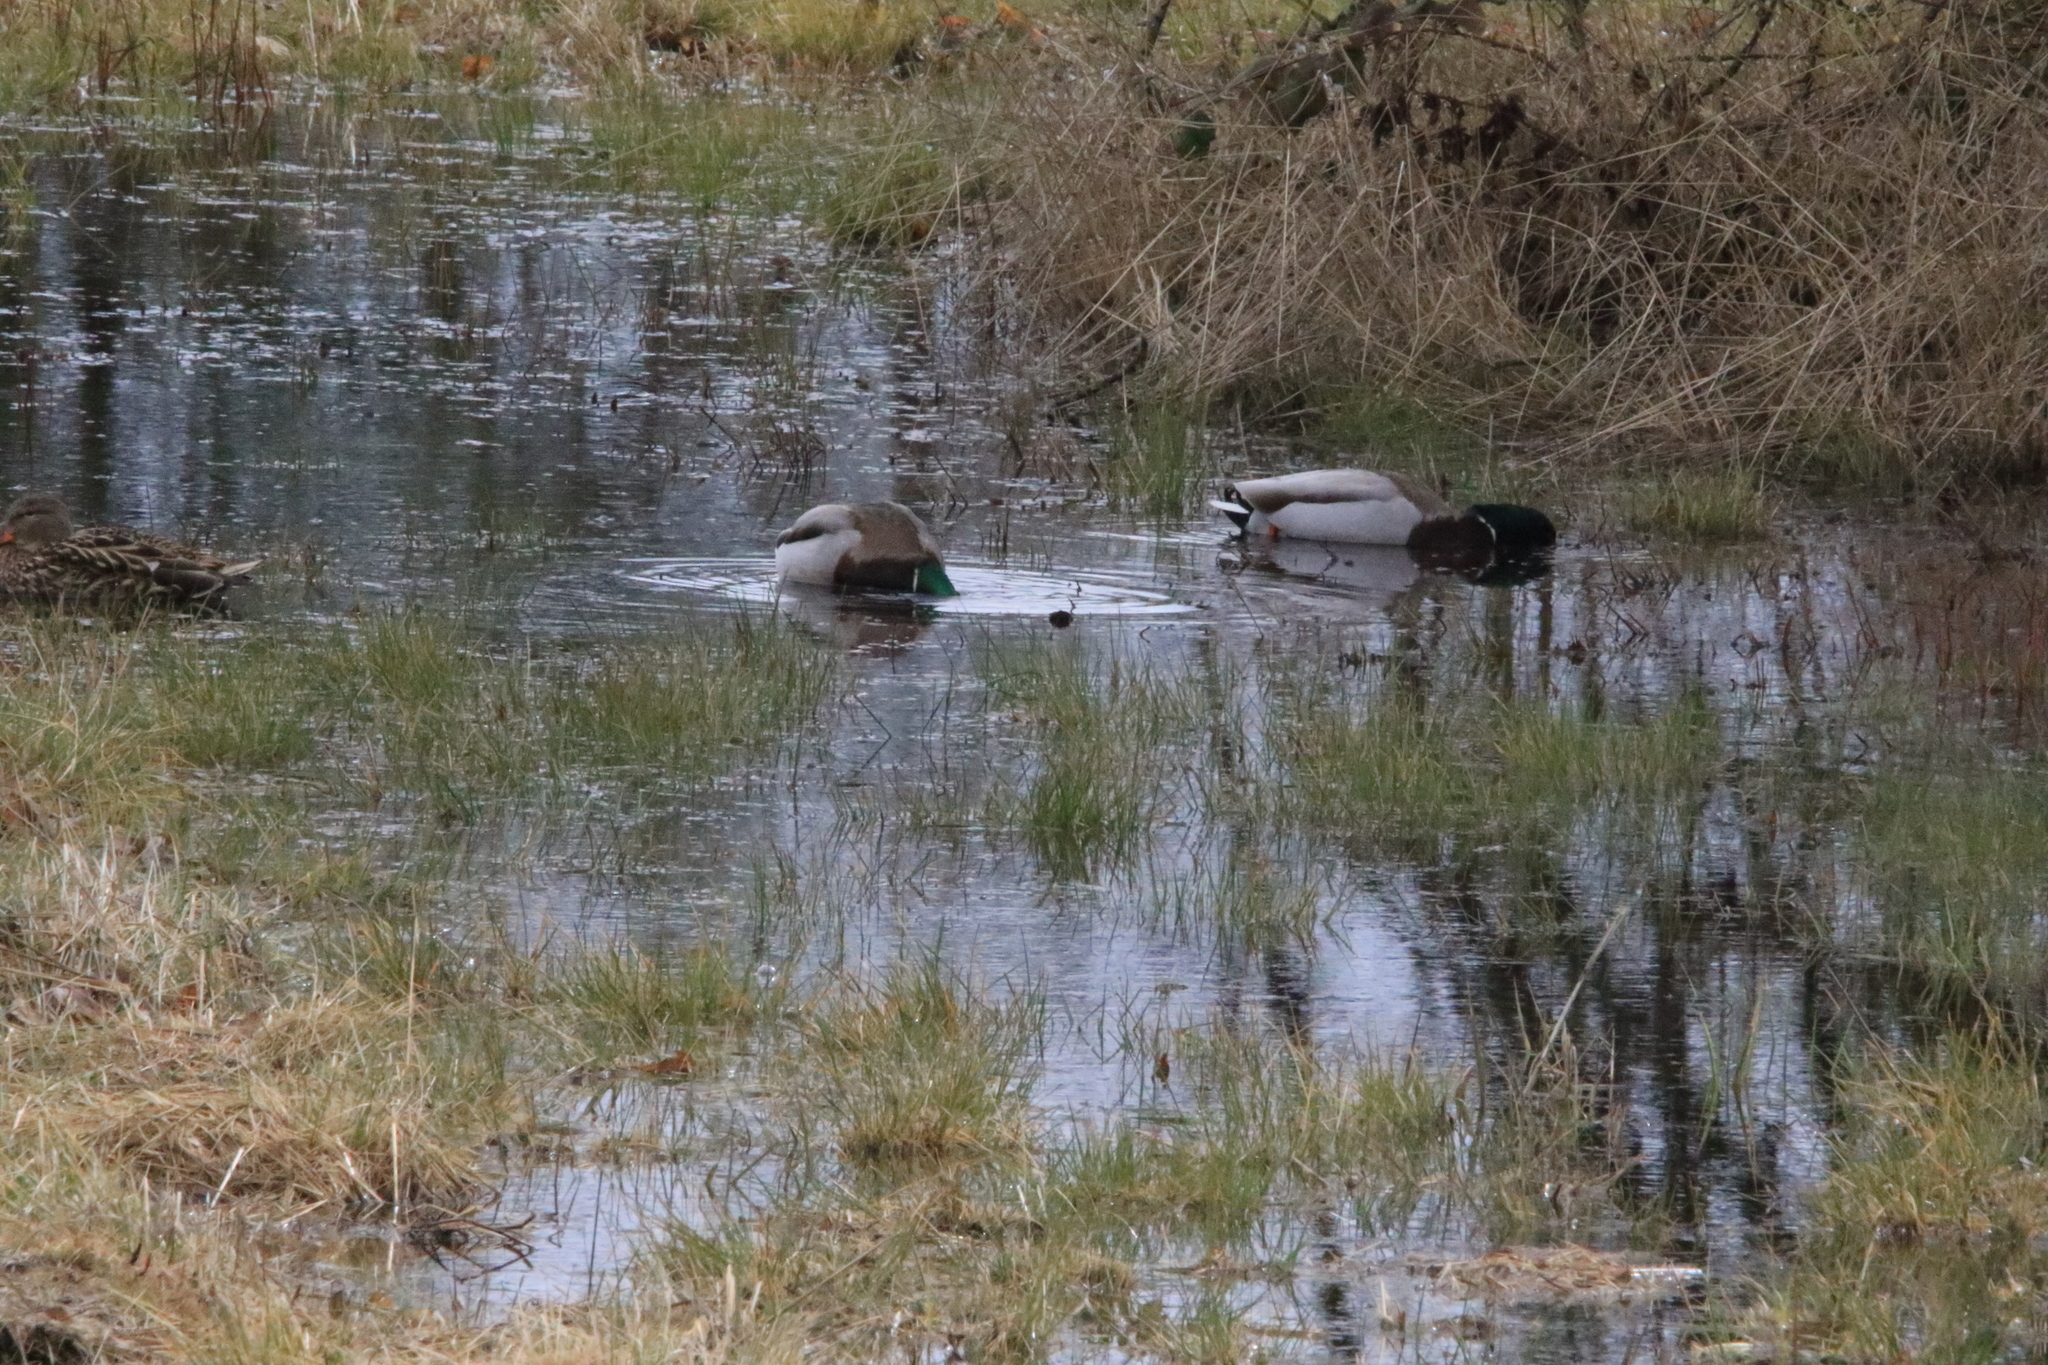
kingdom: Animalia
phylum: Chordata
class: Aves
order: Anseriformes
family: Anatidae
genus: Anas
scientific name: Anas platyrhynchos
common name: Mallard
